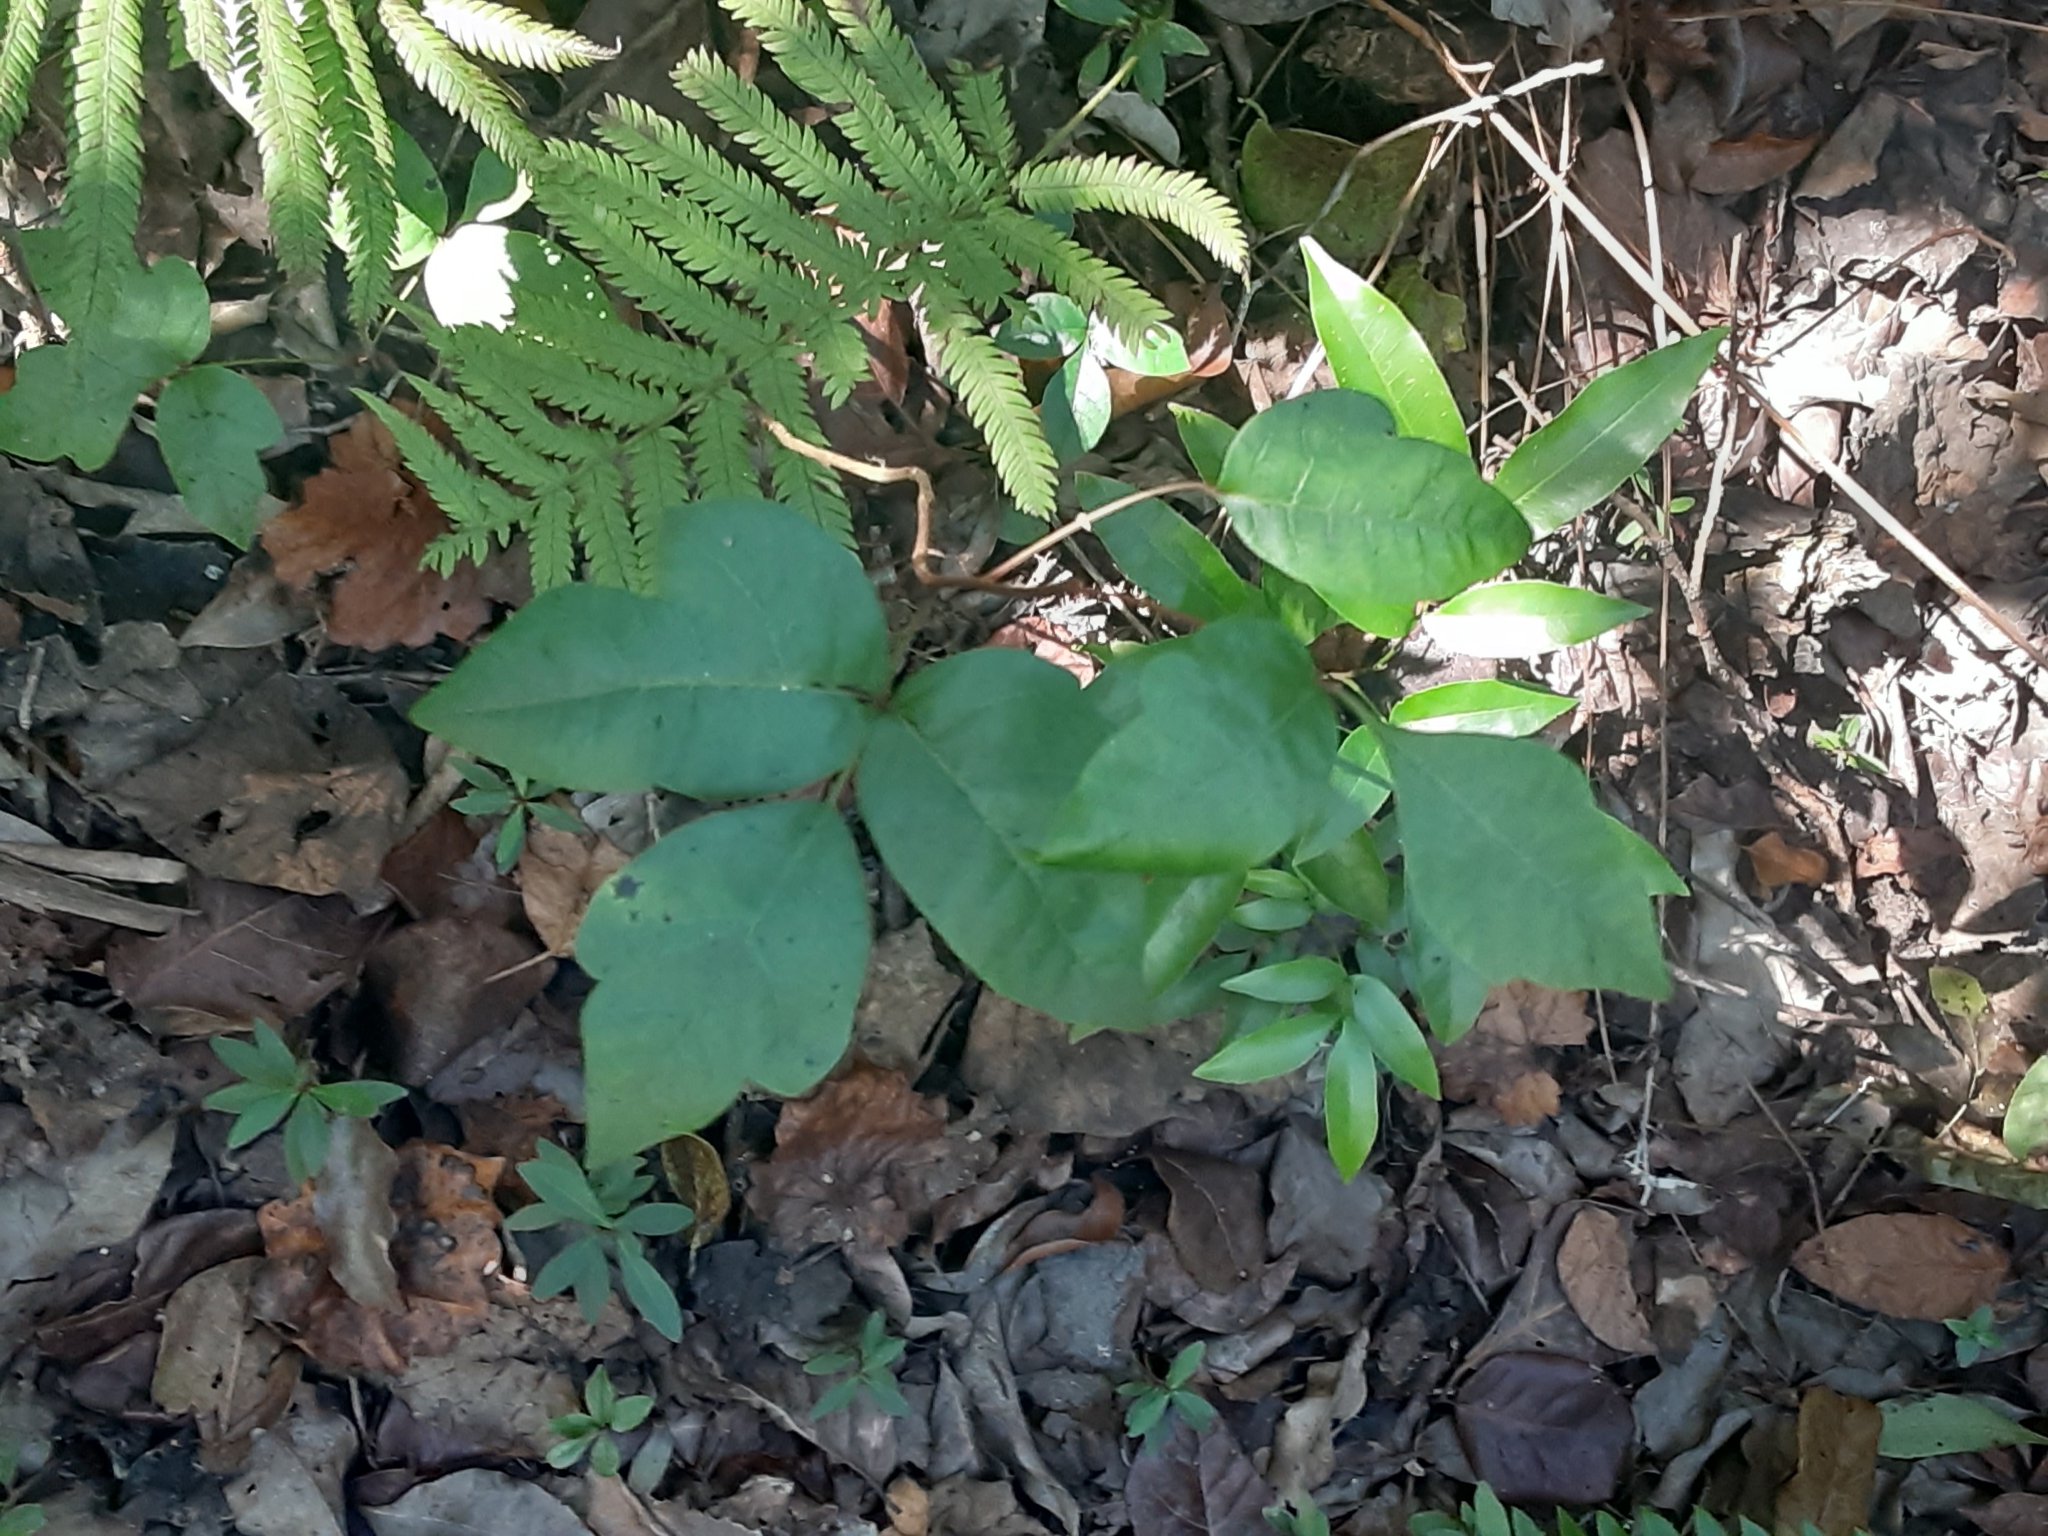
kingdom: Plantae
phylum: Tracheophyta
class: Magnoliopsida
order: Sapindales
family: Anacardiaceae
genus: Toxicodendron
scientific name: Toxicodendron radicans
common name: Poison ivy
